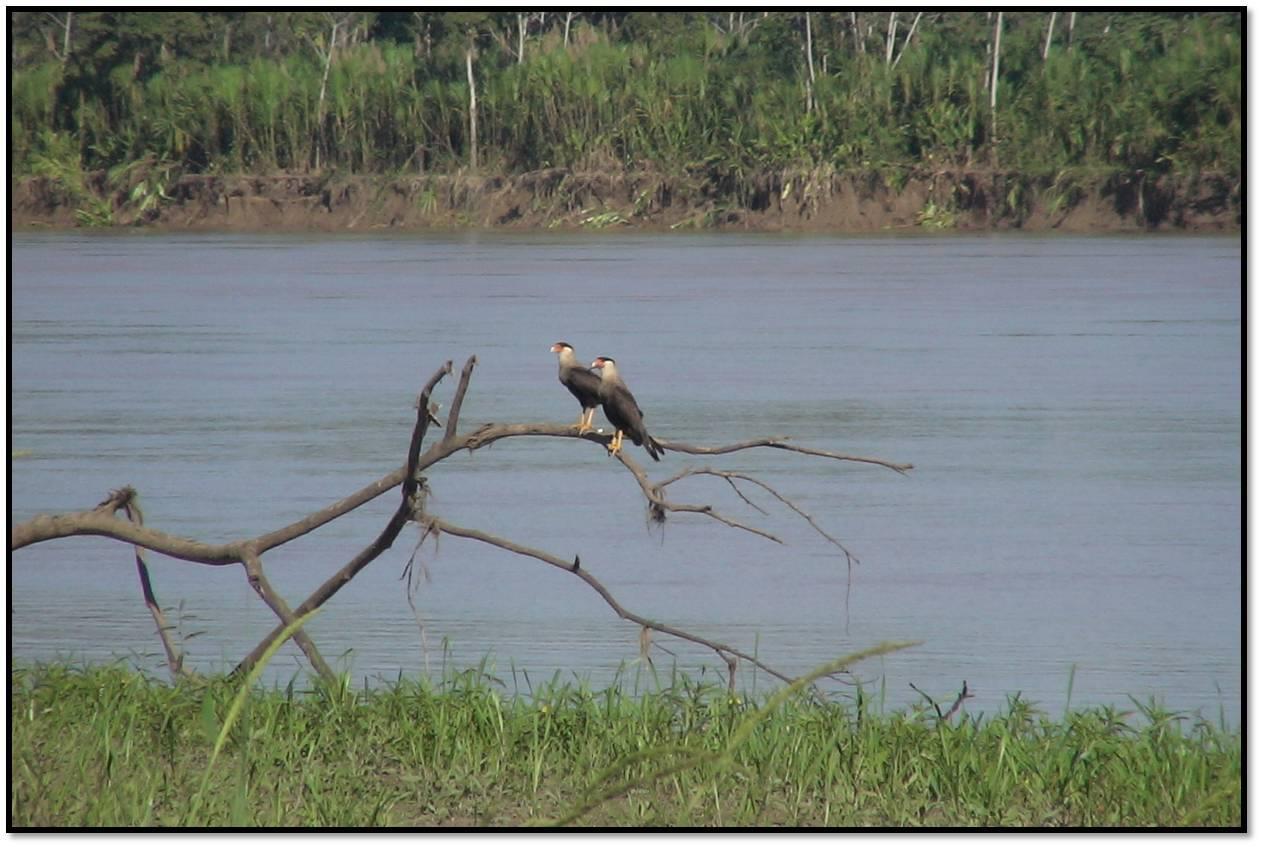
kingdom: Animalia
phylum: Chordata
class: Aves
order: Falconiformes
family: Falconidae
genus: Caracara
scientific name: Caracara plancus
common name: Southern caracara
